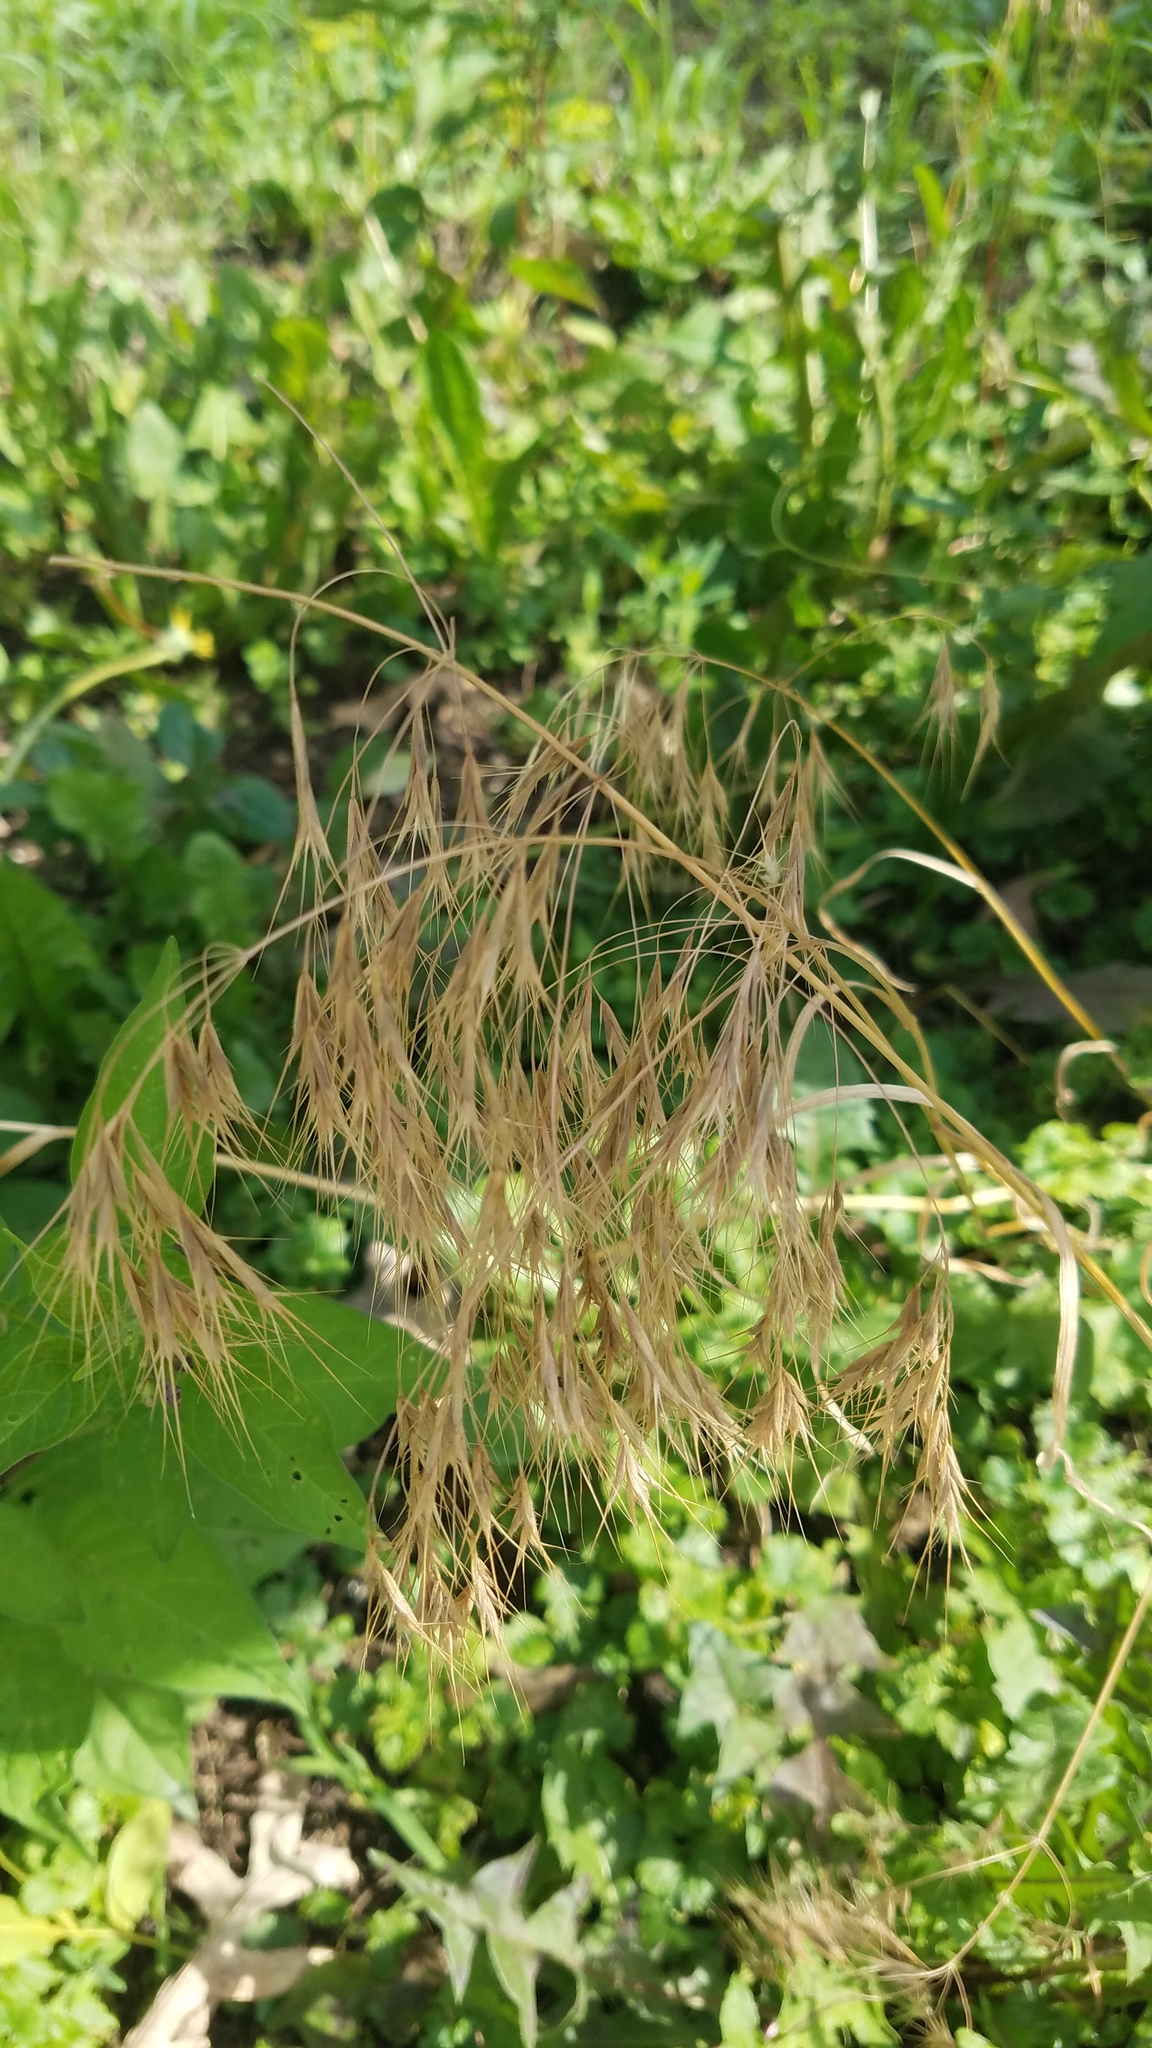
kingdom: Plantae
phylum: Tracheophyta
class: Liliopsida
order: Poales
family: Poaceae
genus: Bromus
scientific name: Bromus tectorum
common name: Cheatgrass
